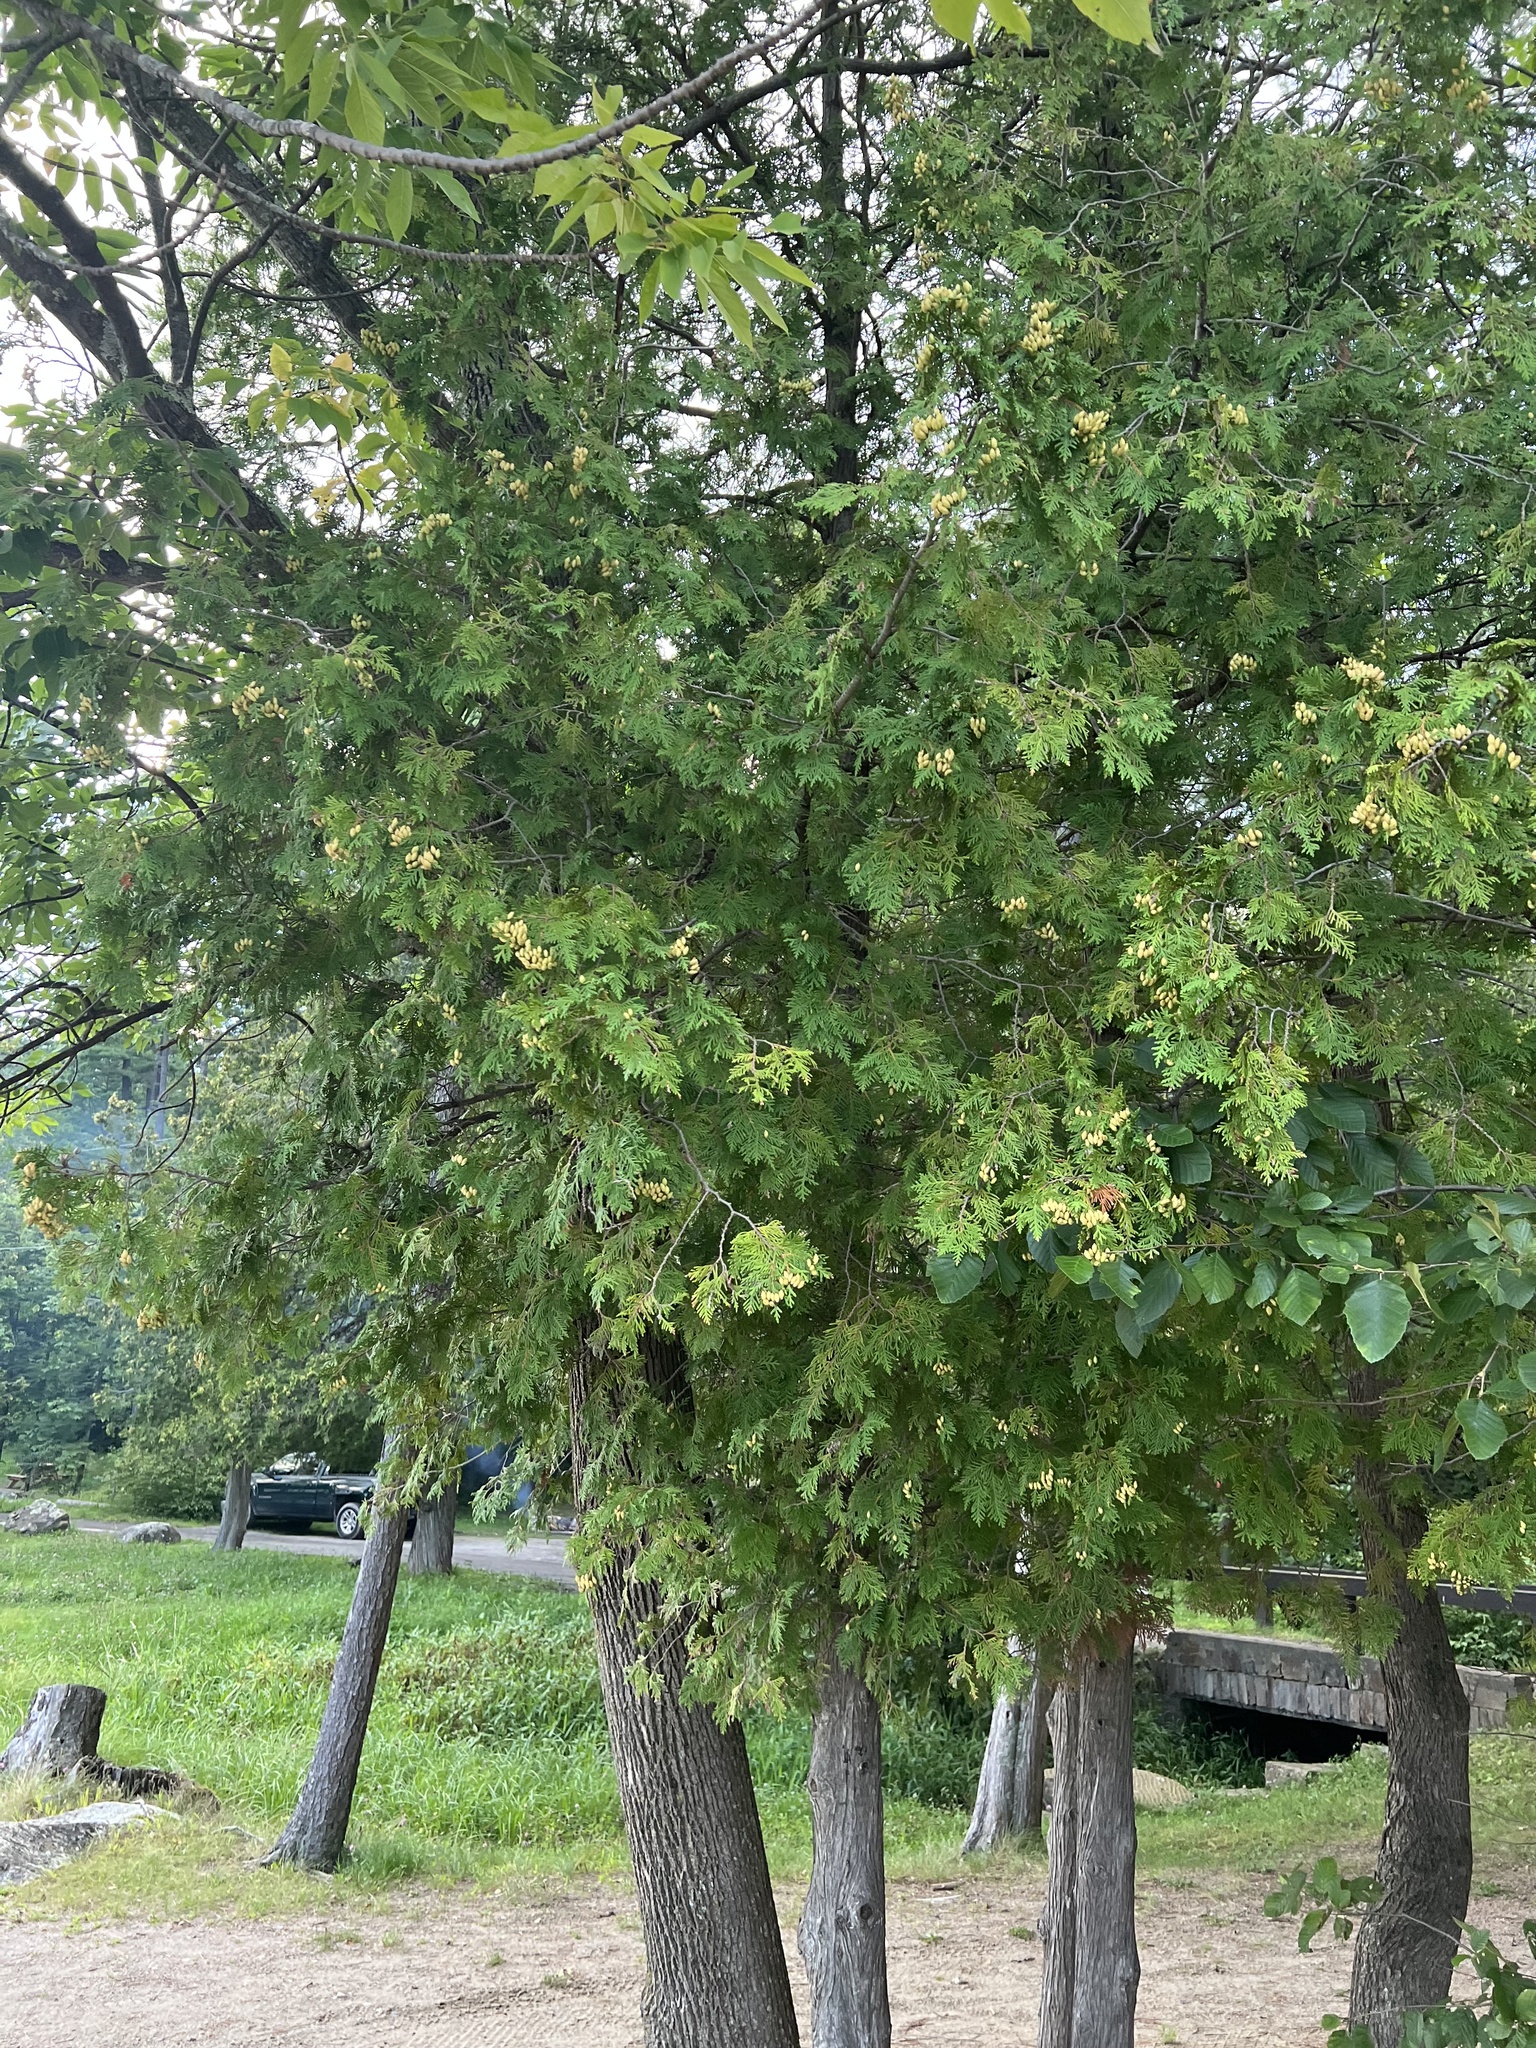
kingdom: Plantae
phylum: Tracheophyta
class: Pinopsida
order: Pinales
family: Cupressaceae
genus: Thuja
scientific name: Thuja occidentalis
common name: Northern white-cedar
